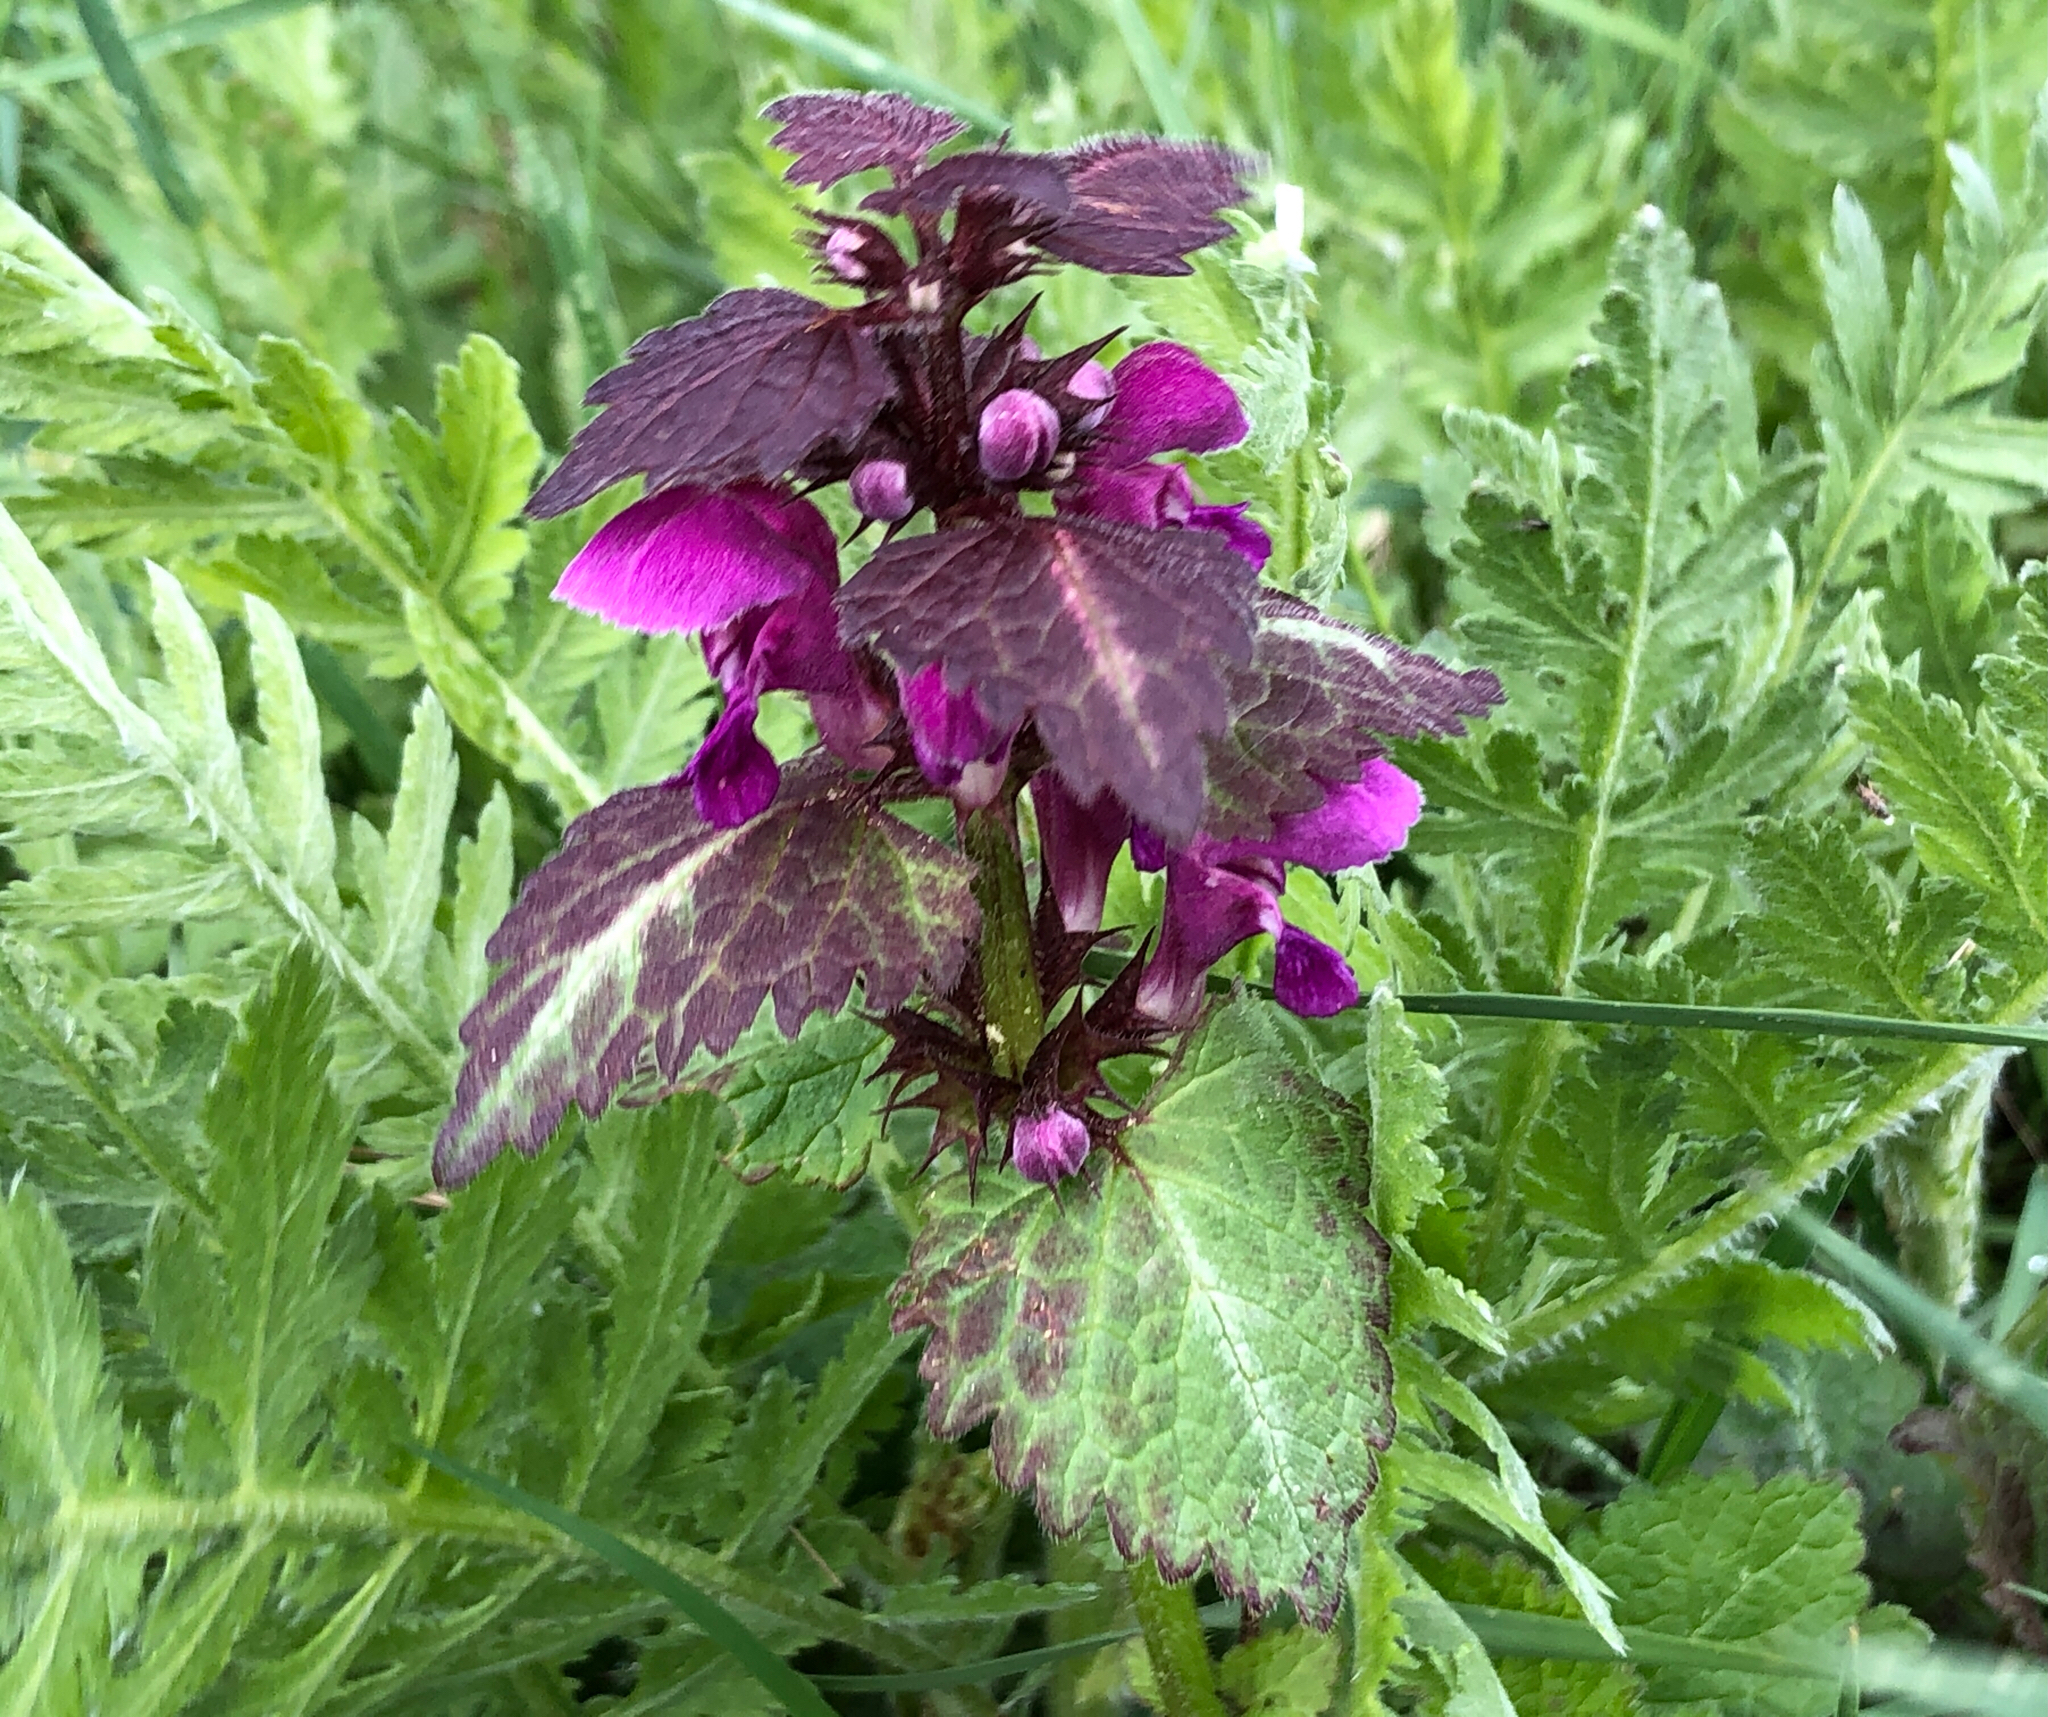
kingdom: Plantae
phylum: Tracheophyta
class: Magnoliopsida
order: Lamiales
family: Lamiaceae
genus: Lamium
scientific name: Lamium maculatum
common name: Spotted dead-nettle
